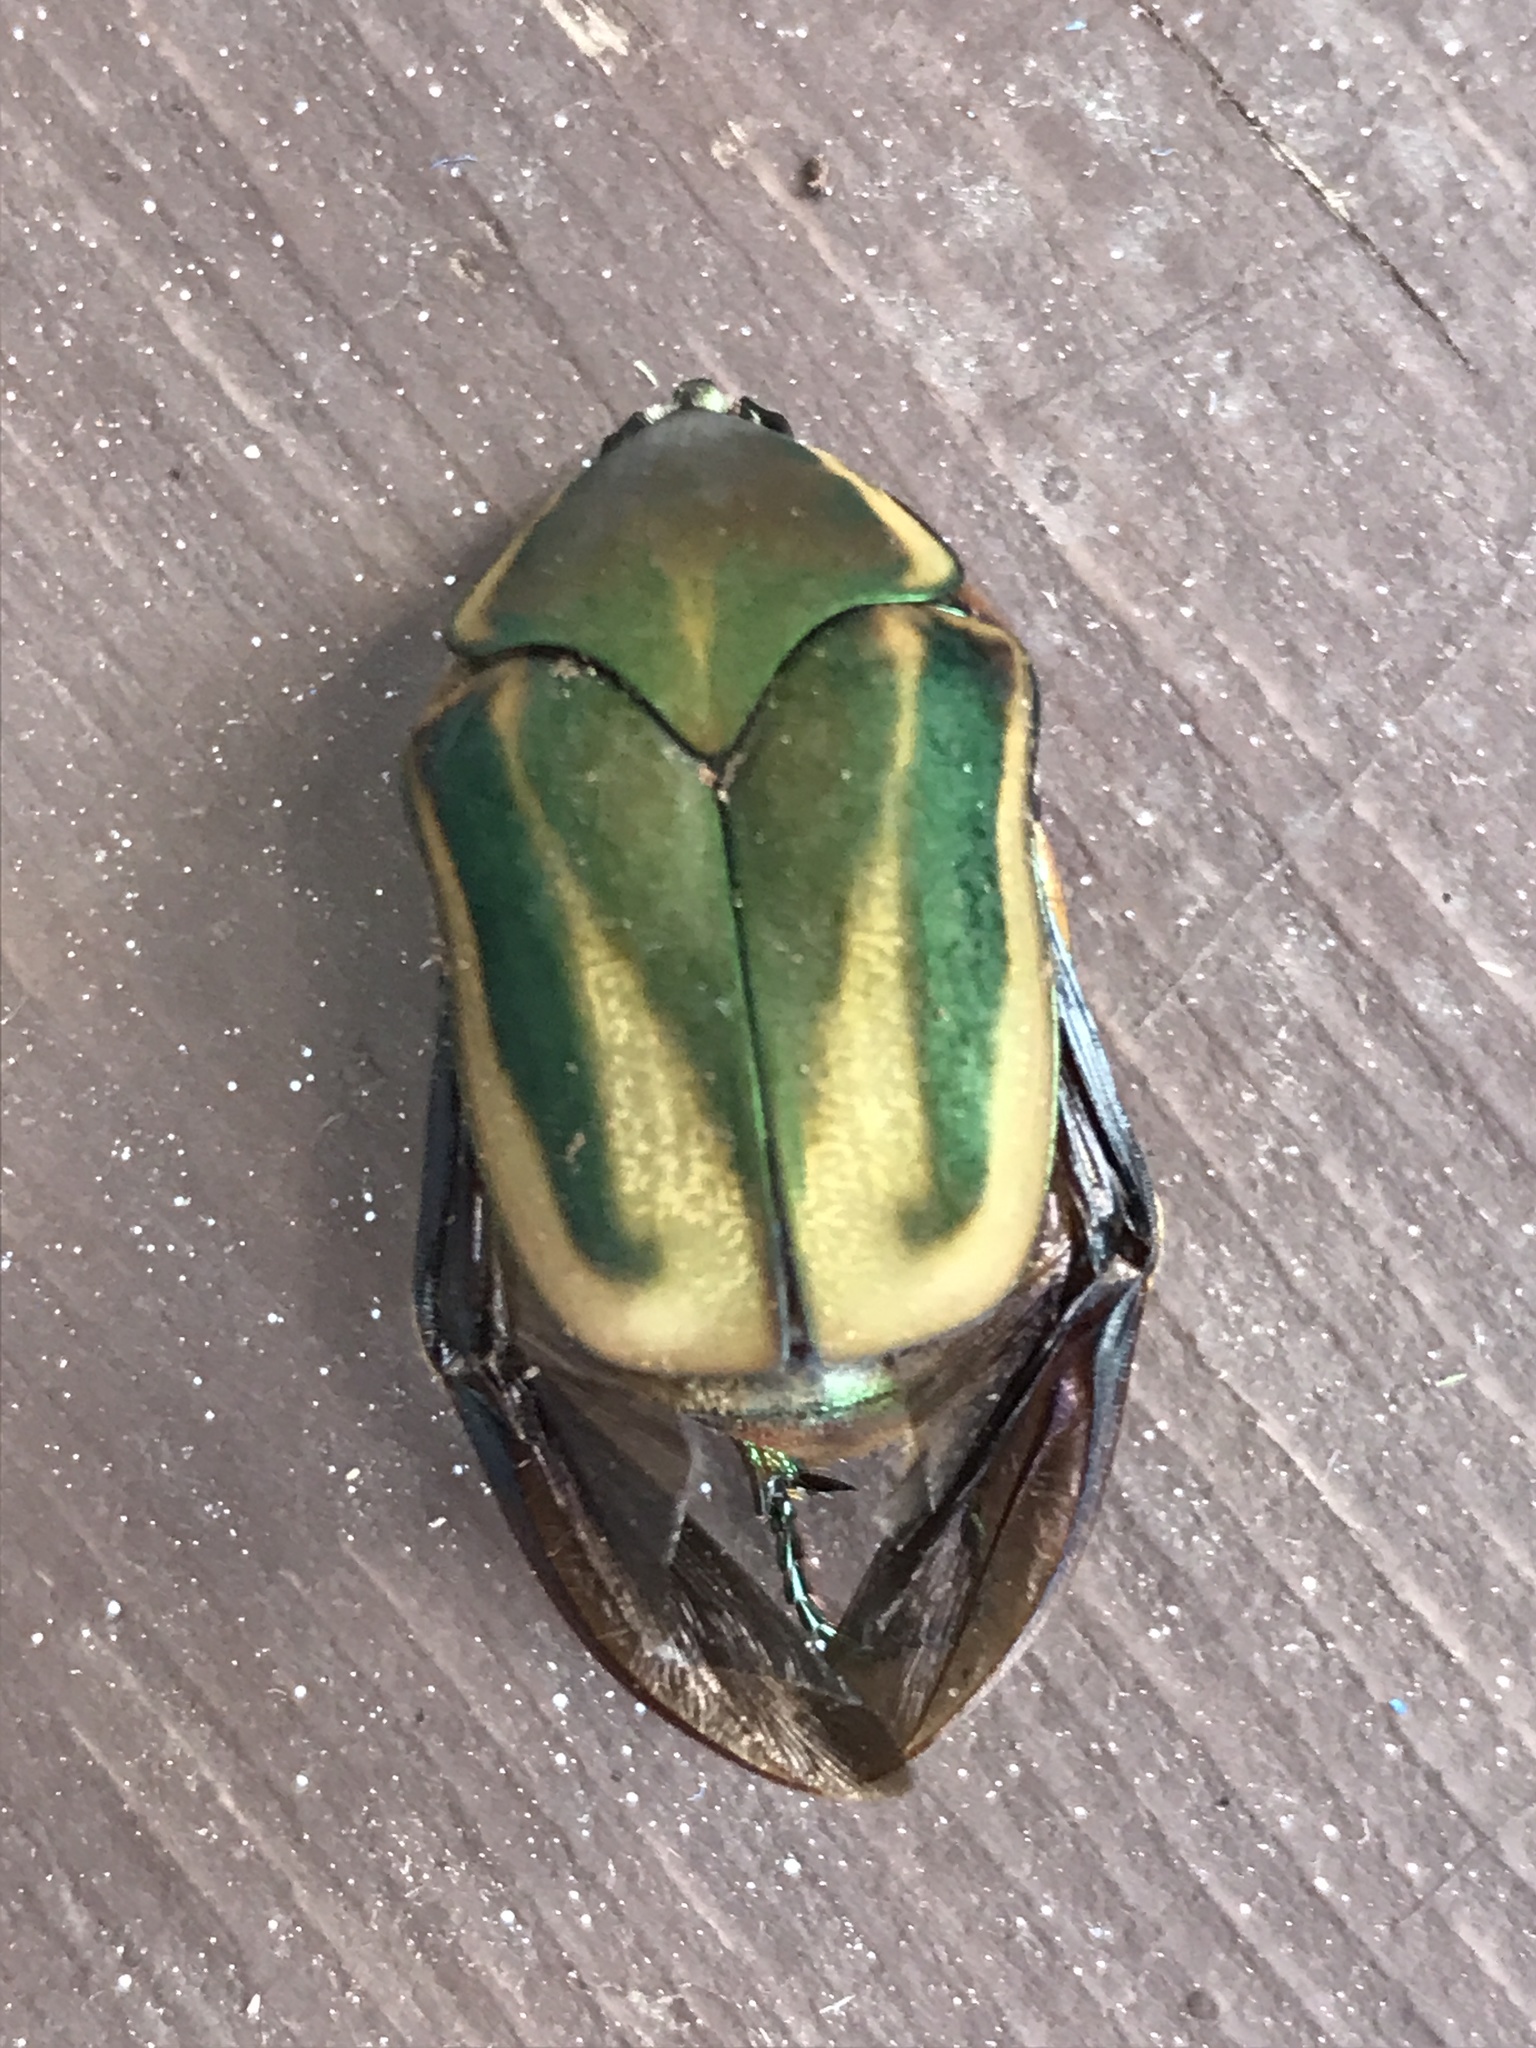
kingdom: Animalia
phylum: Arthropoda
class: Insecta
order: Coleoptera
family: Scarabaeidae
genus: Cotinis
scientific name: Cotinis nitida
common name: Common green june beetle
